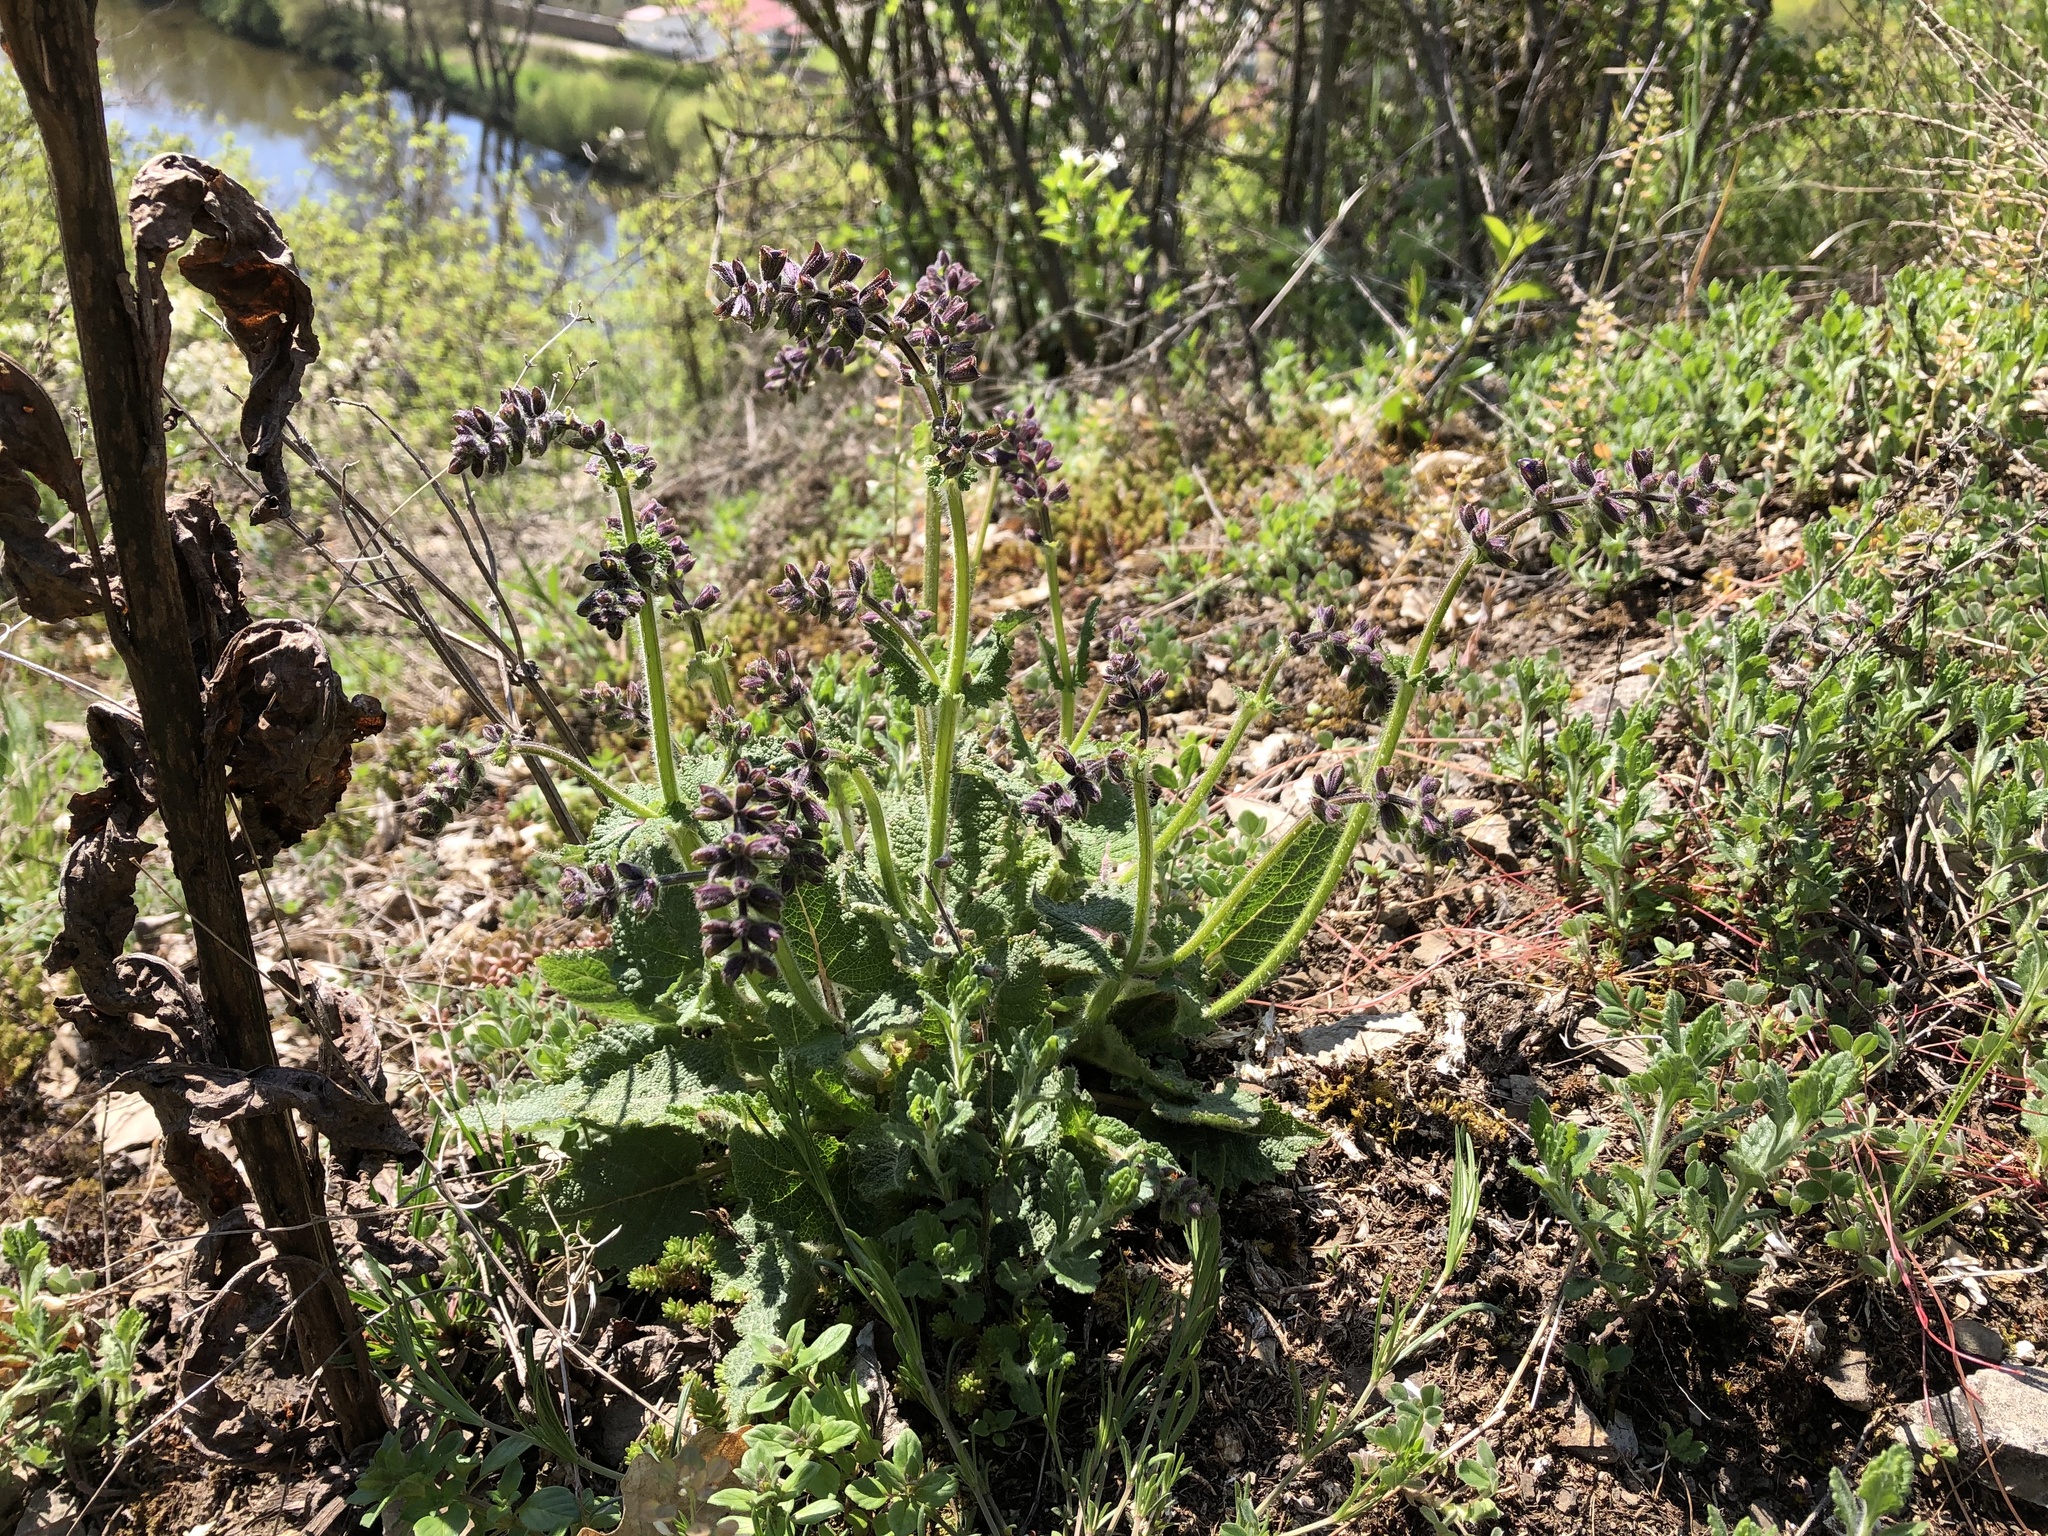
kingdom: Plantae
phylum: Tracheophyta
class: Magnoliopsida
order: Lamiales
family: Lamiaceae
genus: Salvia
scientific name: Salvia pratensis
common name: Meadow sage
